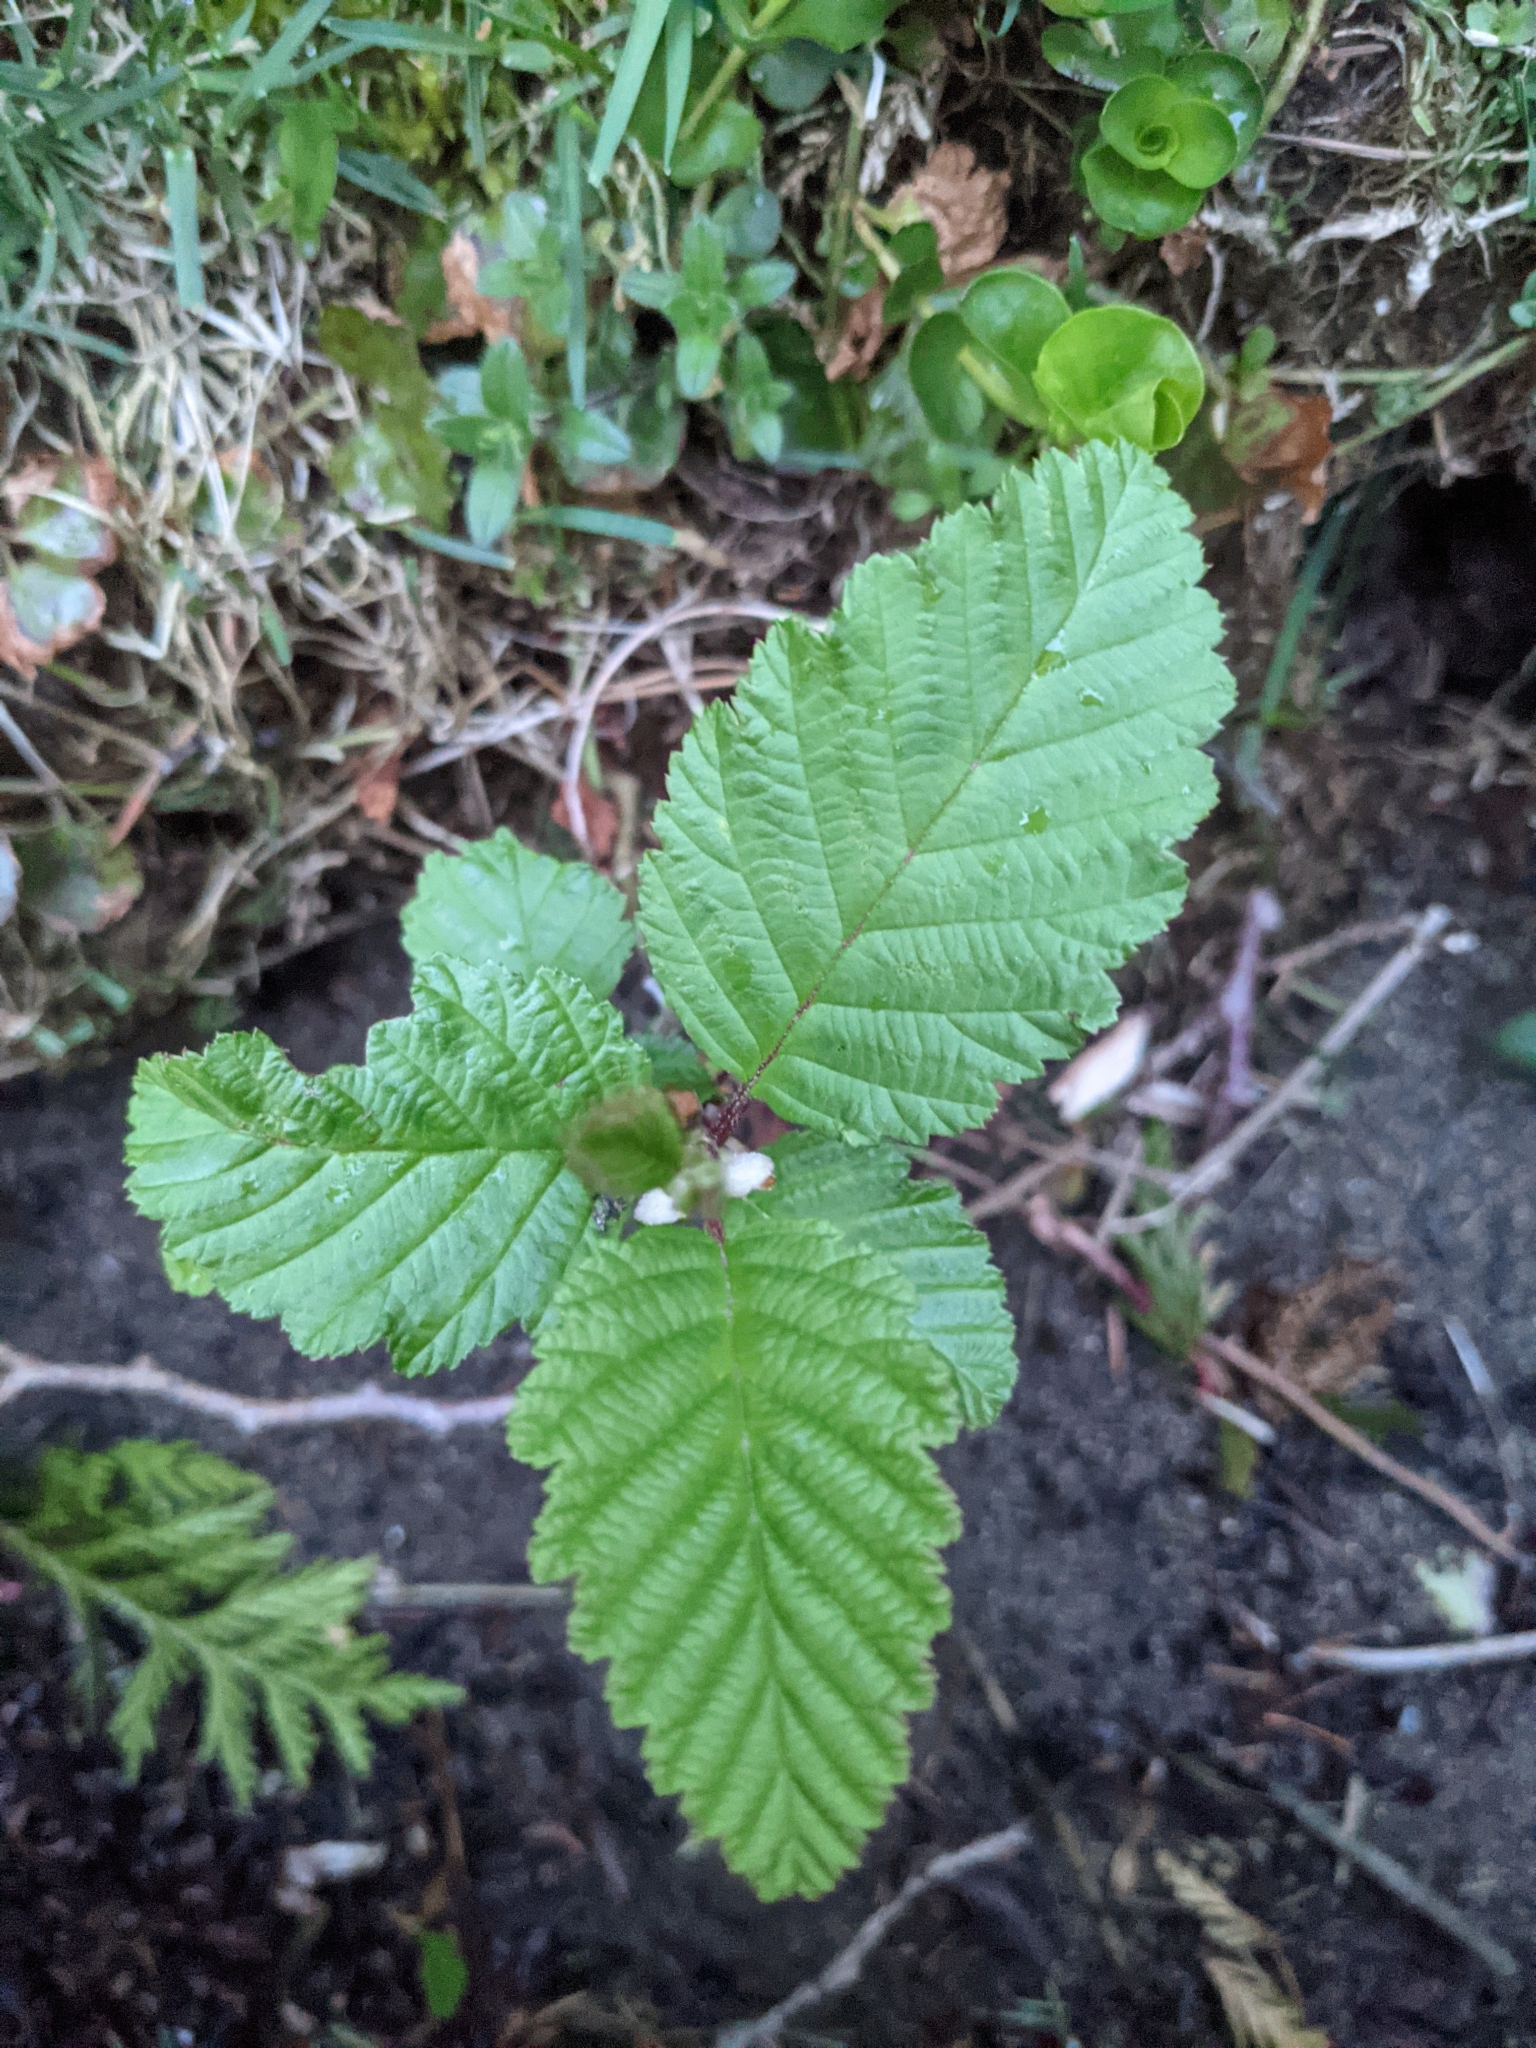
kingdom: Plantae
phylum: Tracheophyta
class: Magnoliopsida
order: Fagales
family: Betulaceae
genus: Alnus
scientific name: Alnus rubra
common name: Red alder
